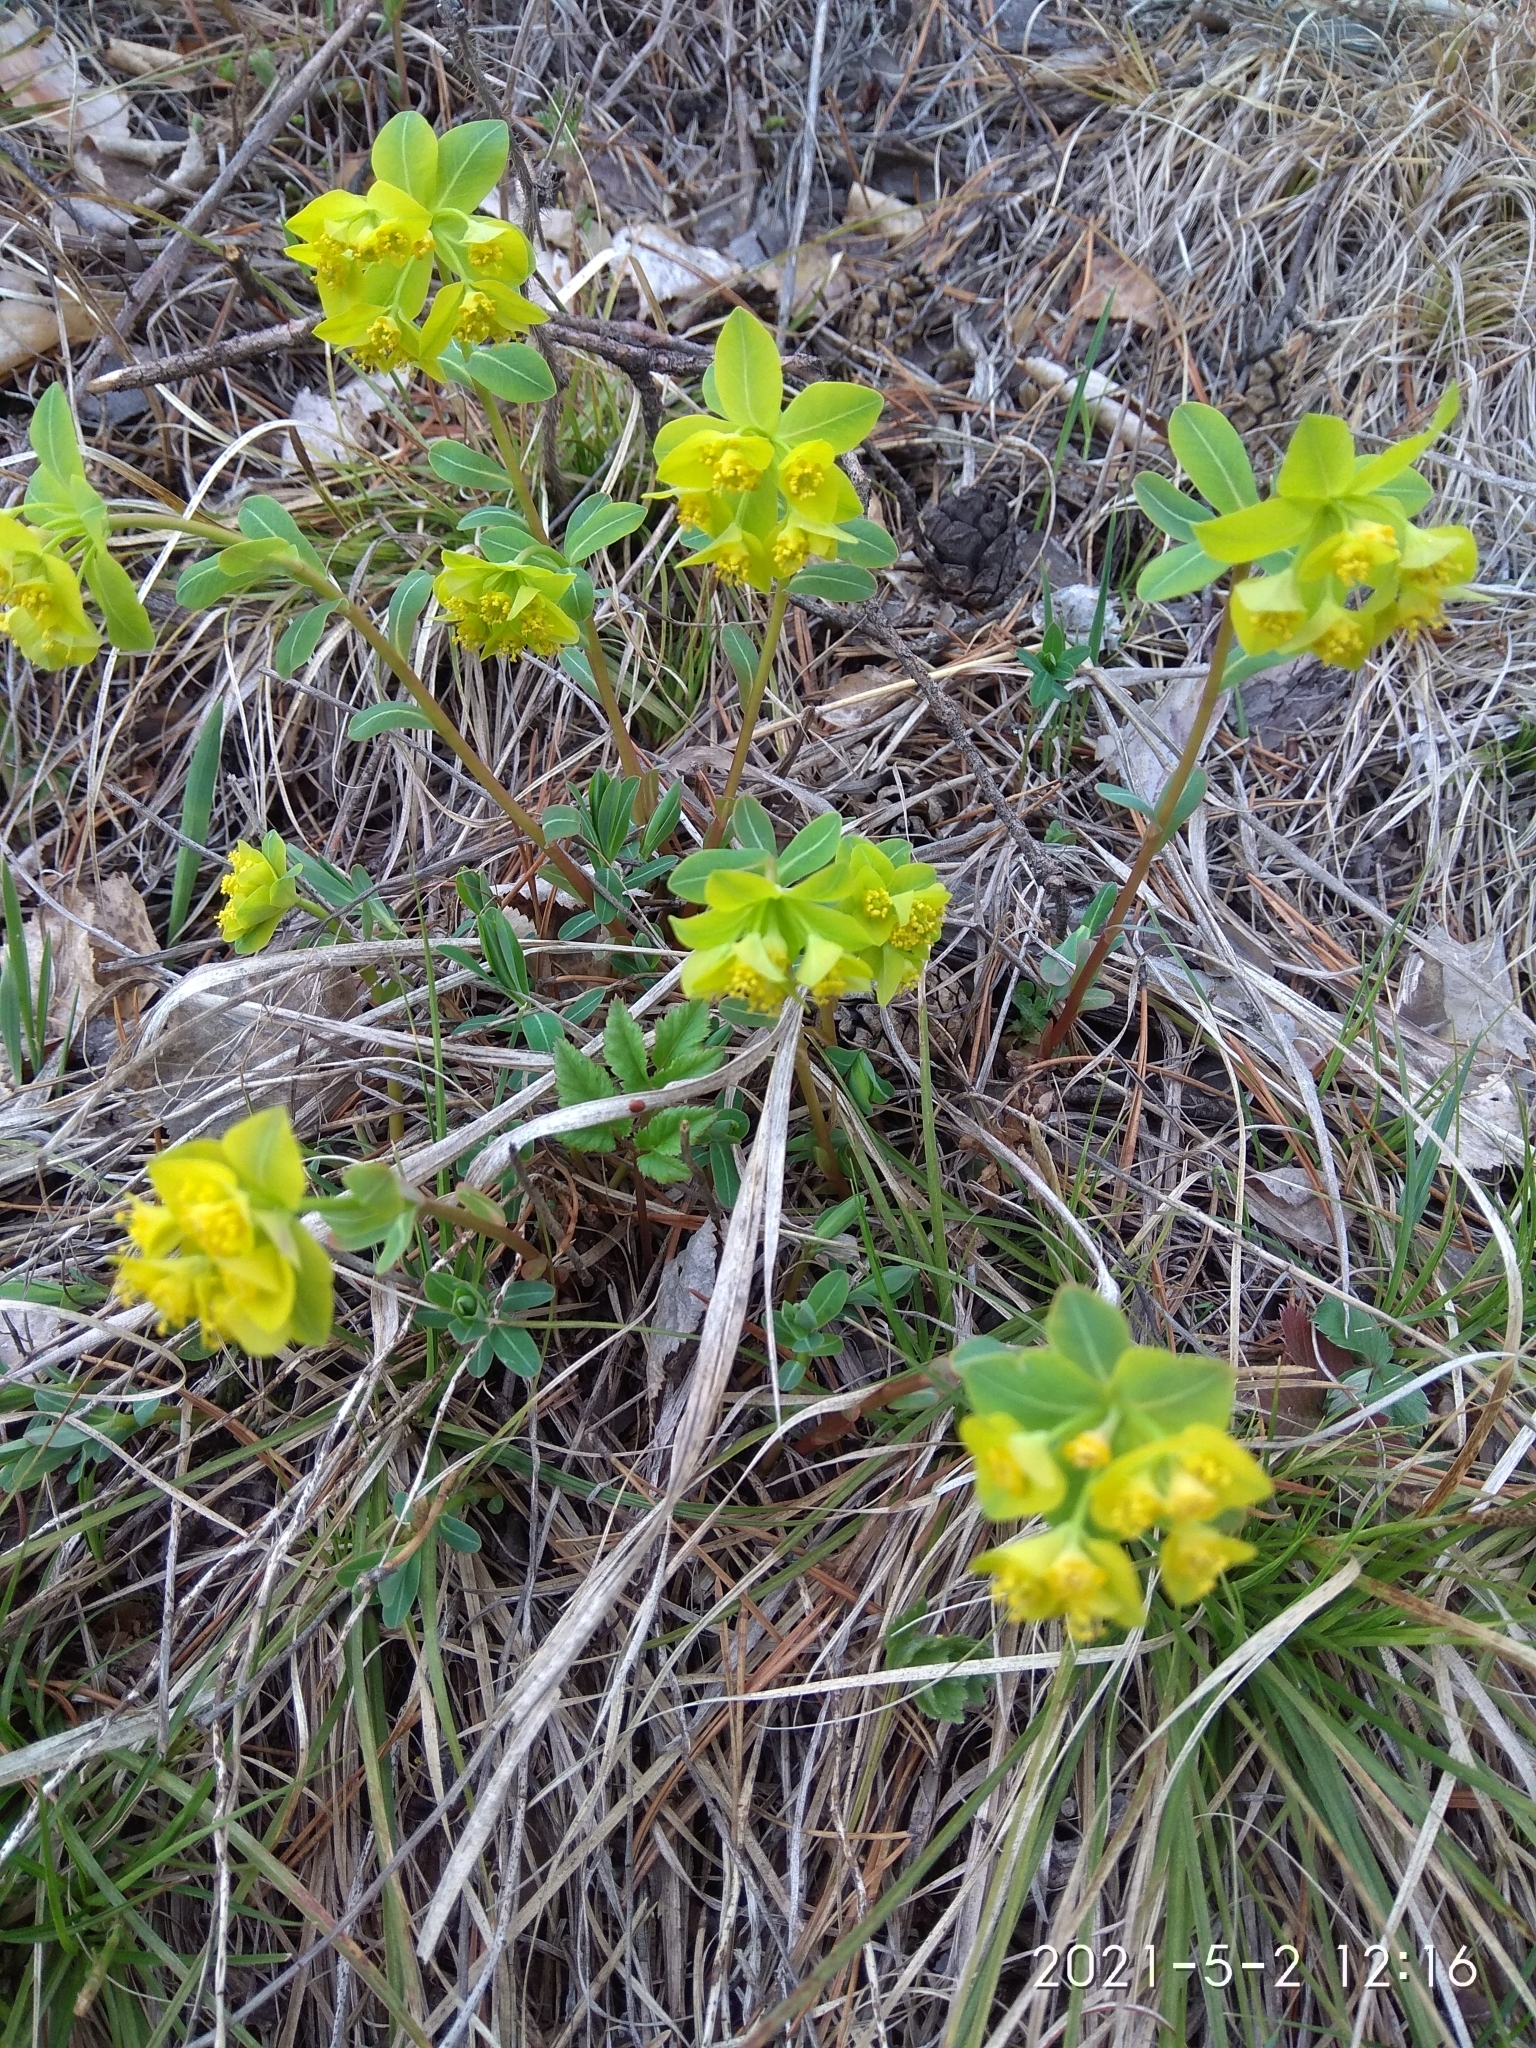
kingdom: Plantae
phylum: Tracheophyta
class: Magnoliopsida
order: Malpighiales
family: Euphorbiaceae
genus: Euphorbia
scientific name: Euphorbia altaica
